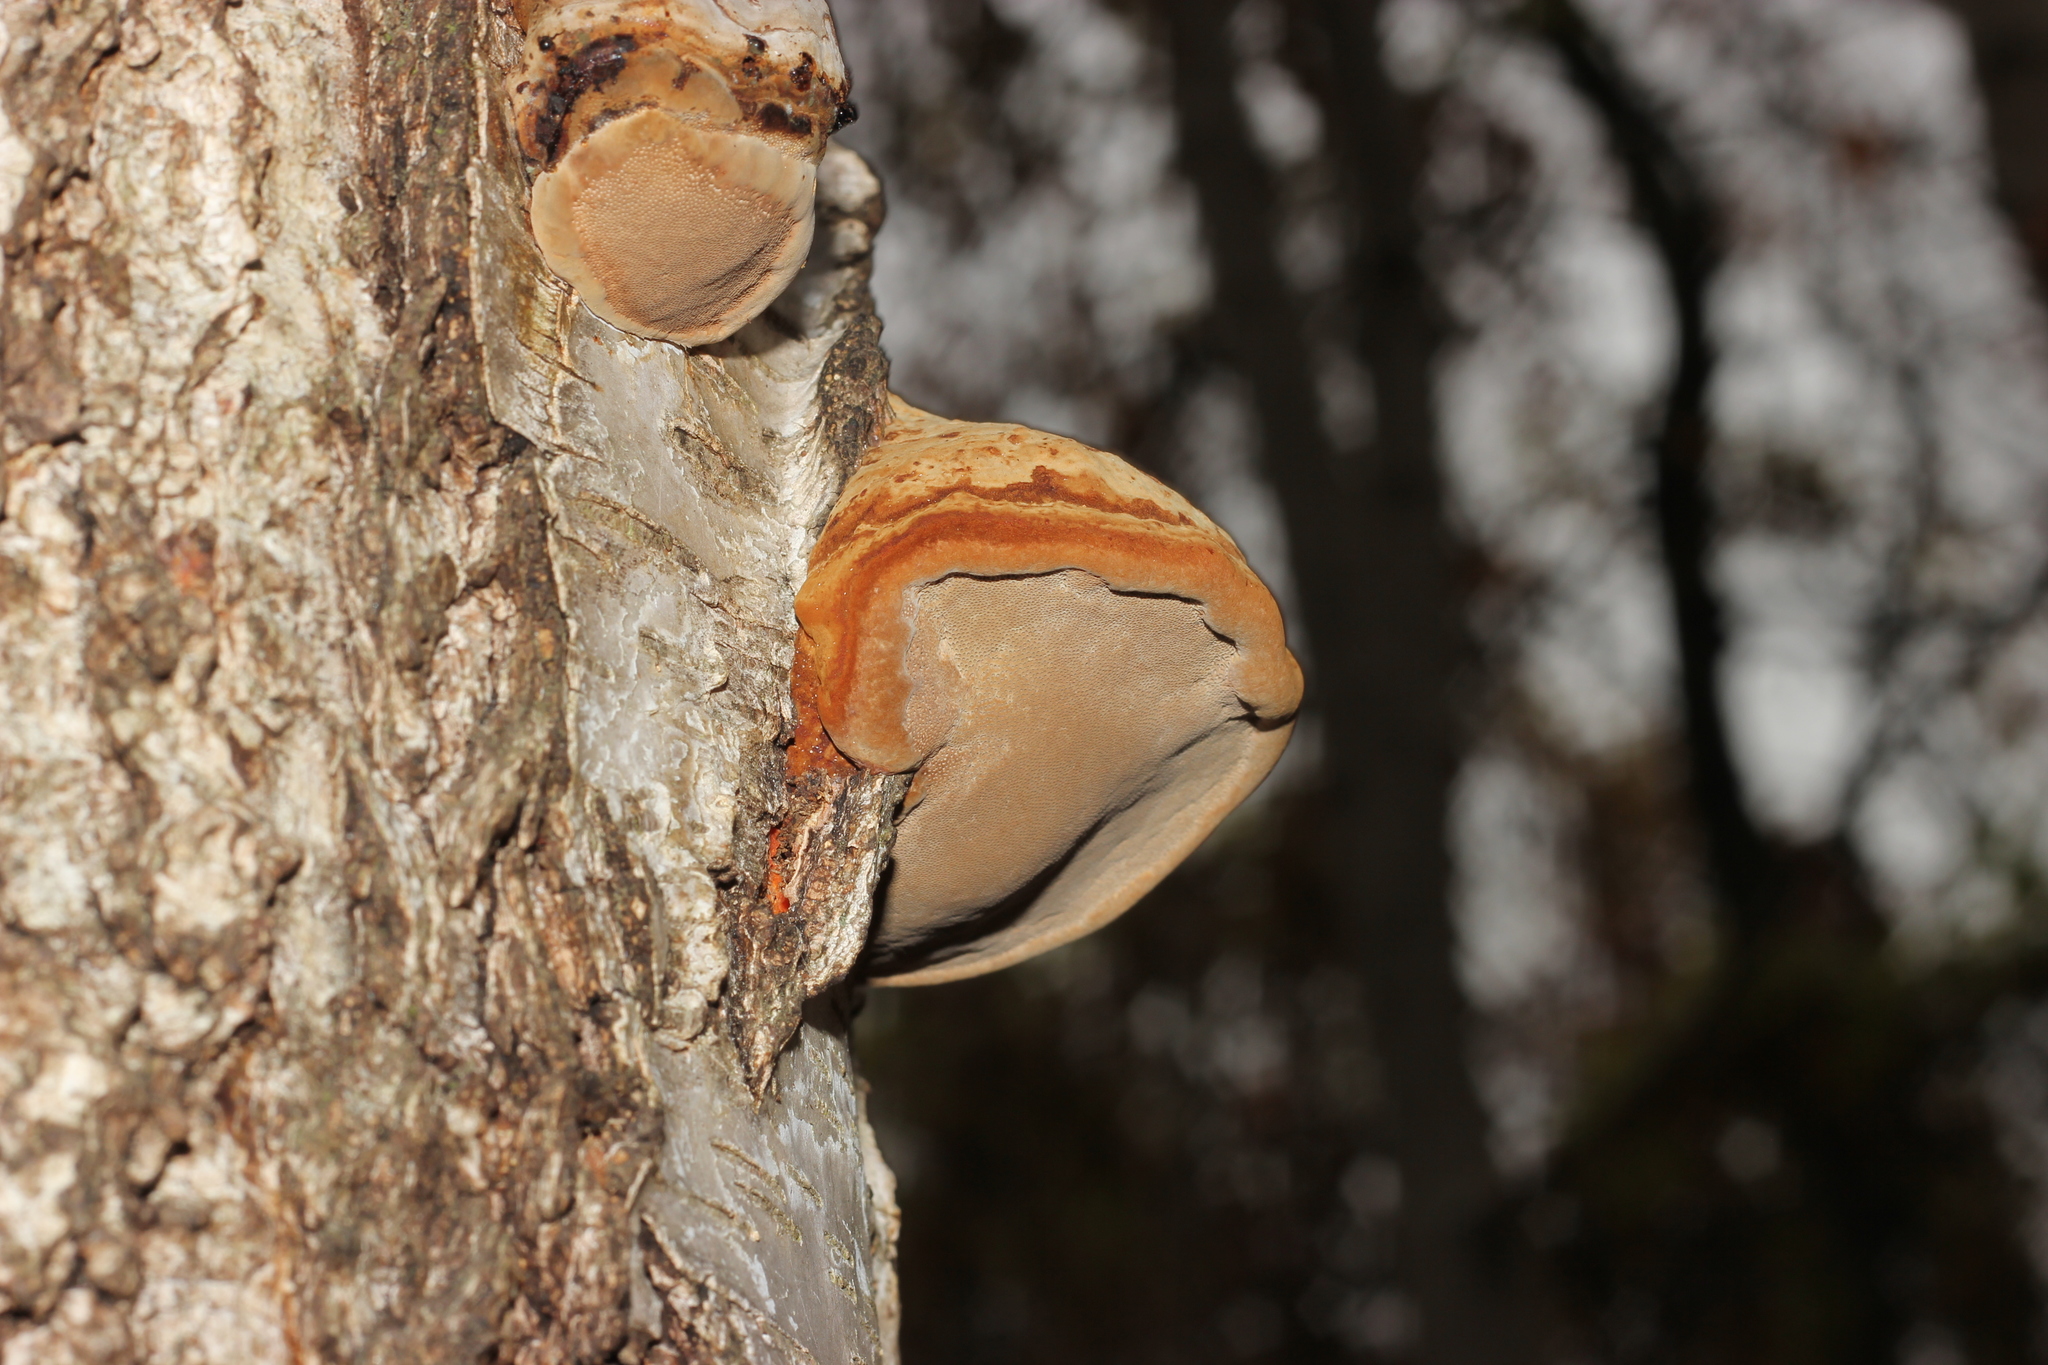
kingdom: Fungi
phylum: Basidiomycota
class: Agaricomycetes
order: Polyporales
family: Polyporaceae
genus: Fomes
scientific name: Fomes fomentarius
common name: Hoof fungus
